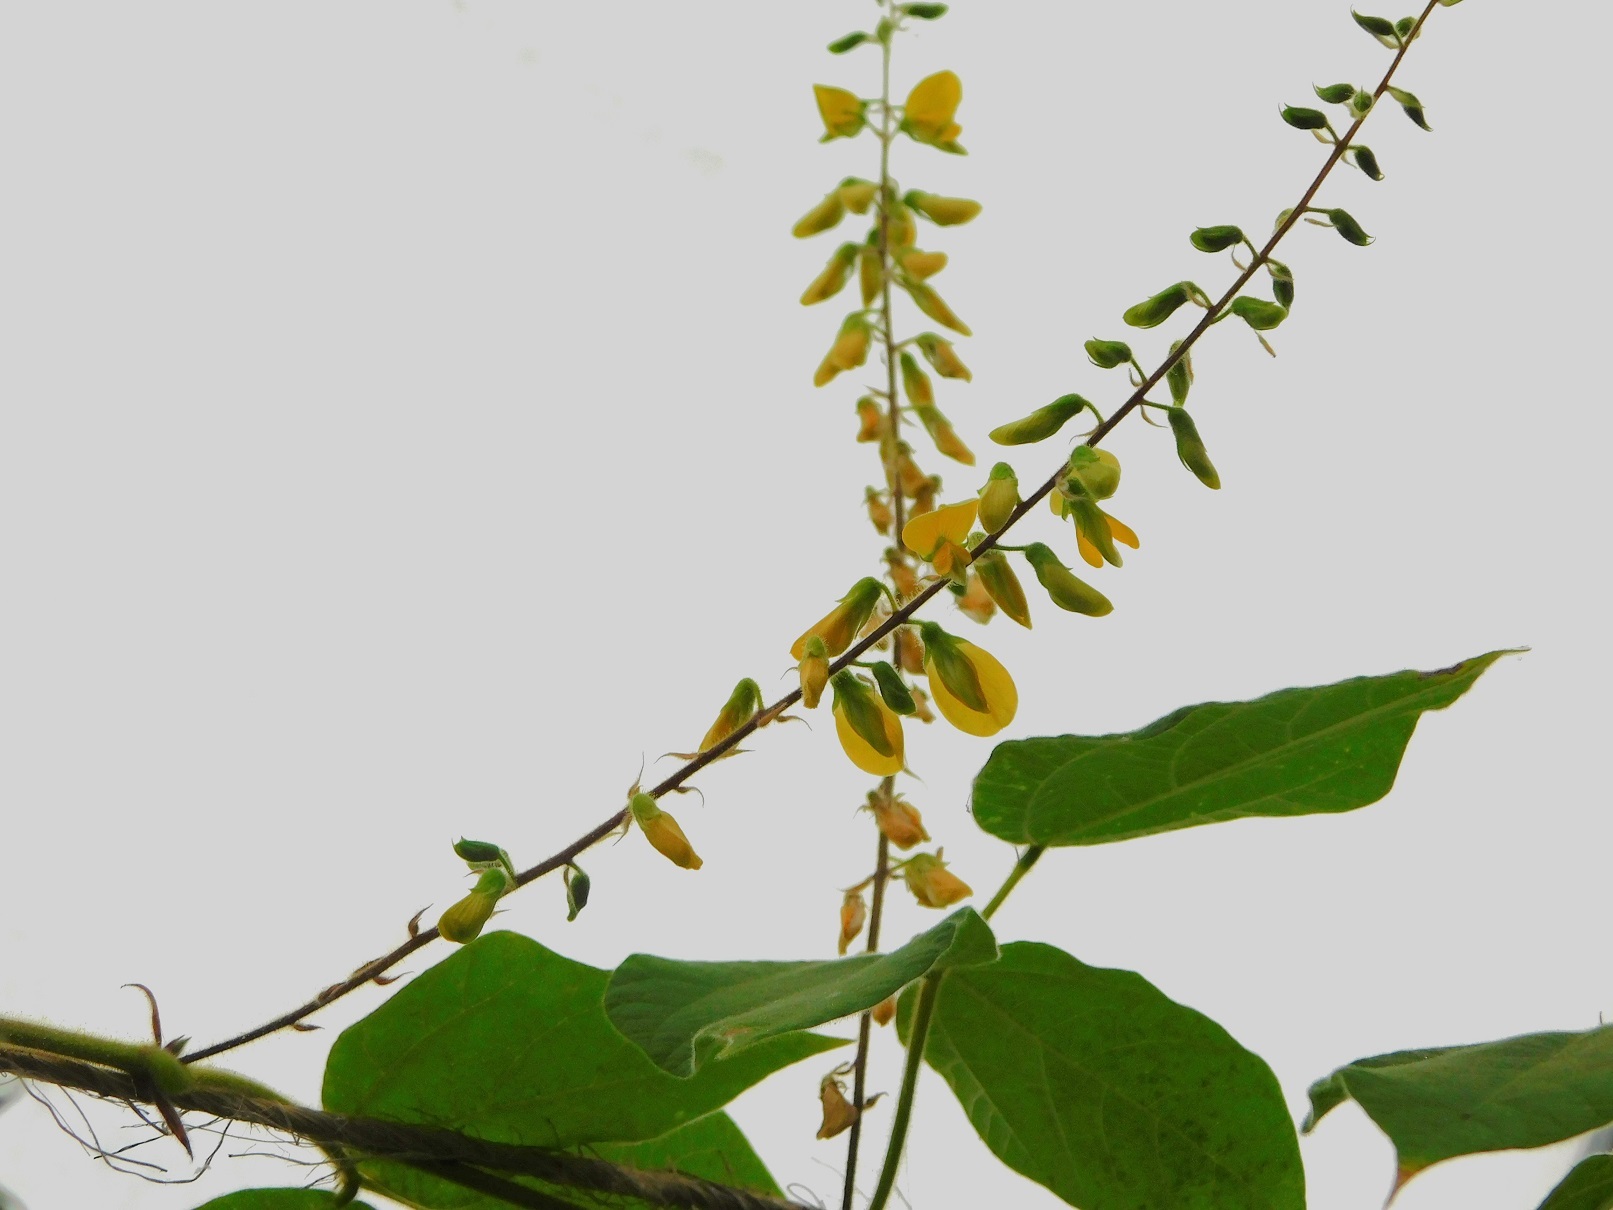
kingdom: Plantae
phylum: Tracheophyta
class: Magnoliopsida
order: Fabales
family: Fabaceae
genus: Rhynchosia
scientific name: Rhynchosia erythrinoides
